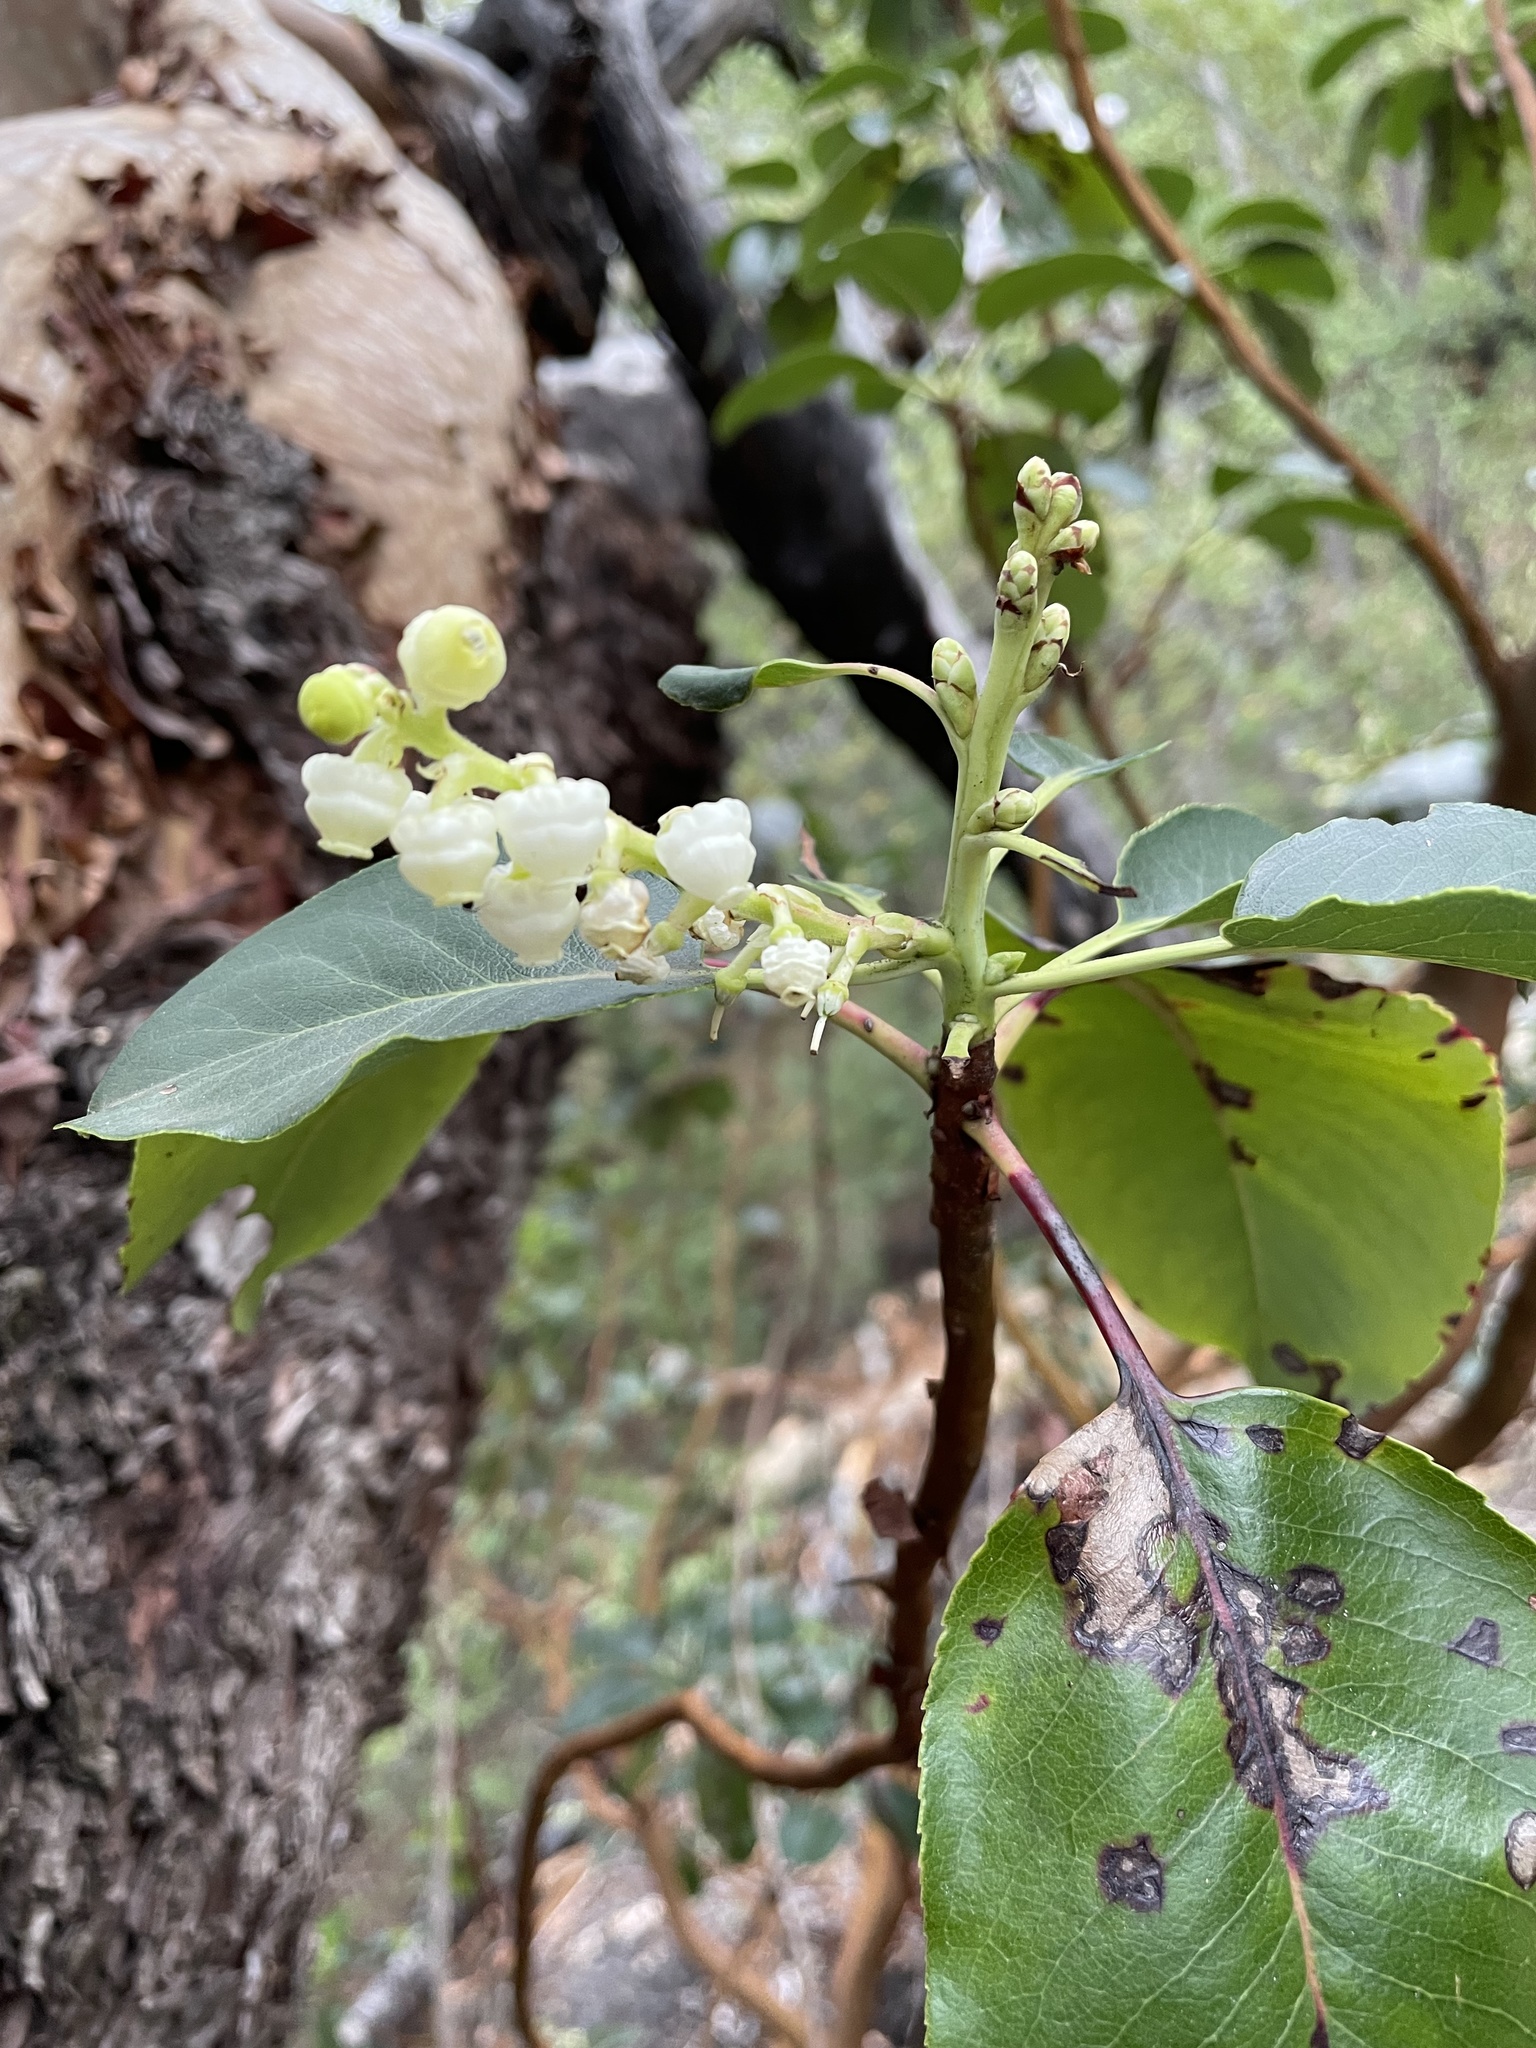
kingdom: Plantae
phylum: Tracheophyta
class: Magnoliopsida
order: Ericales
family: Ericaceae
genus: Arbutus
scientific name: Arbutus menziesii
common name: Pacific madrone
